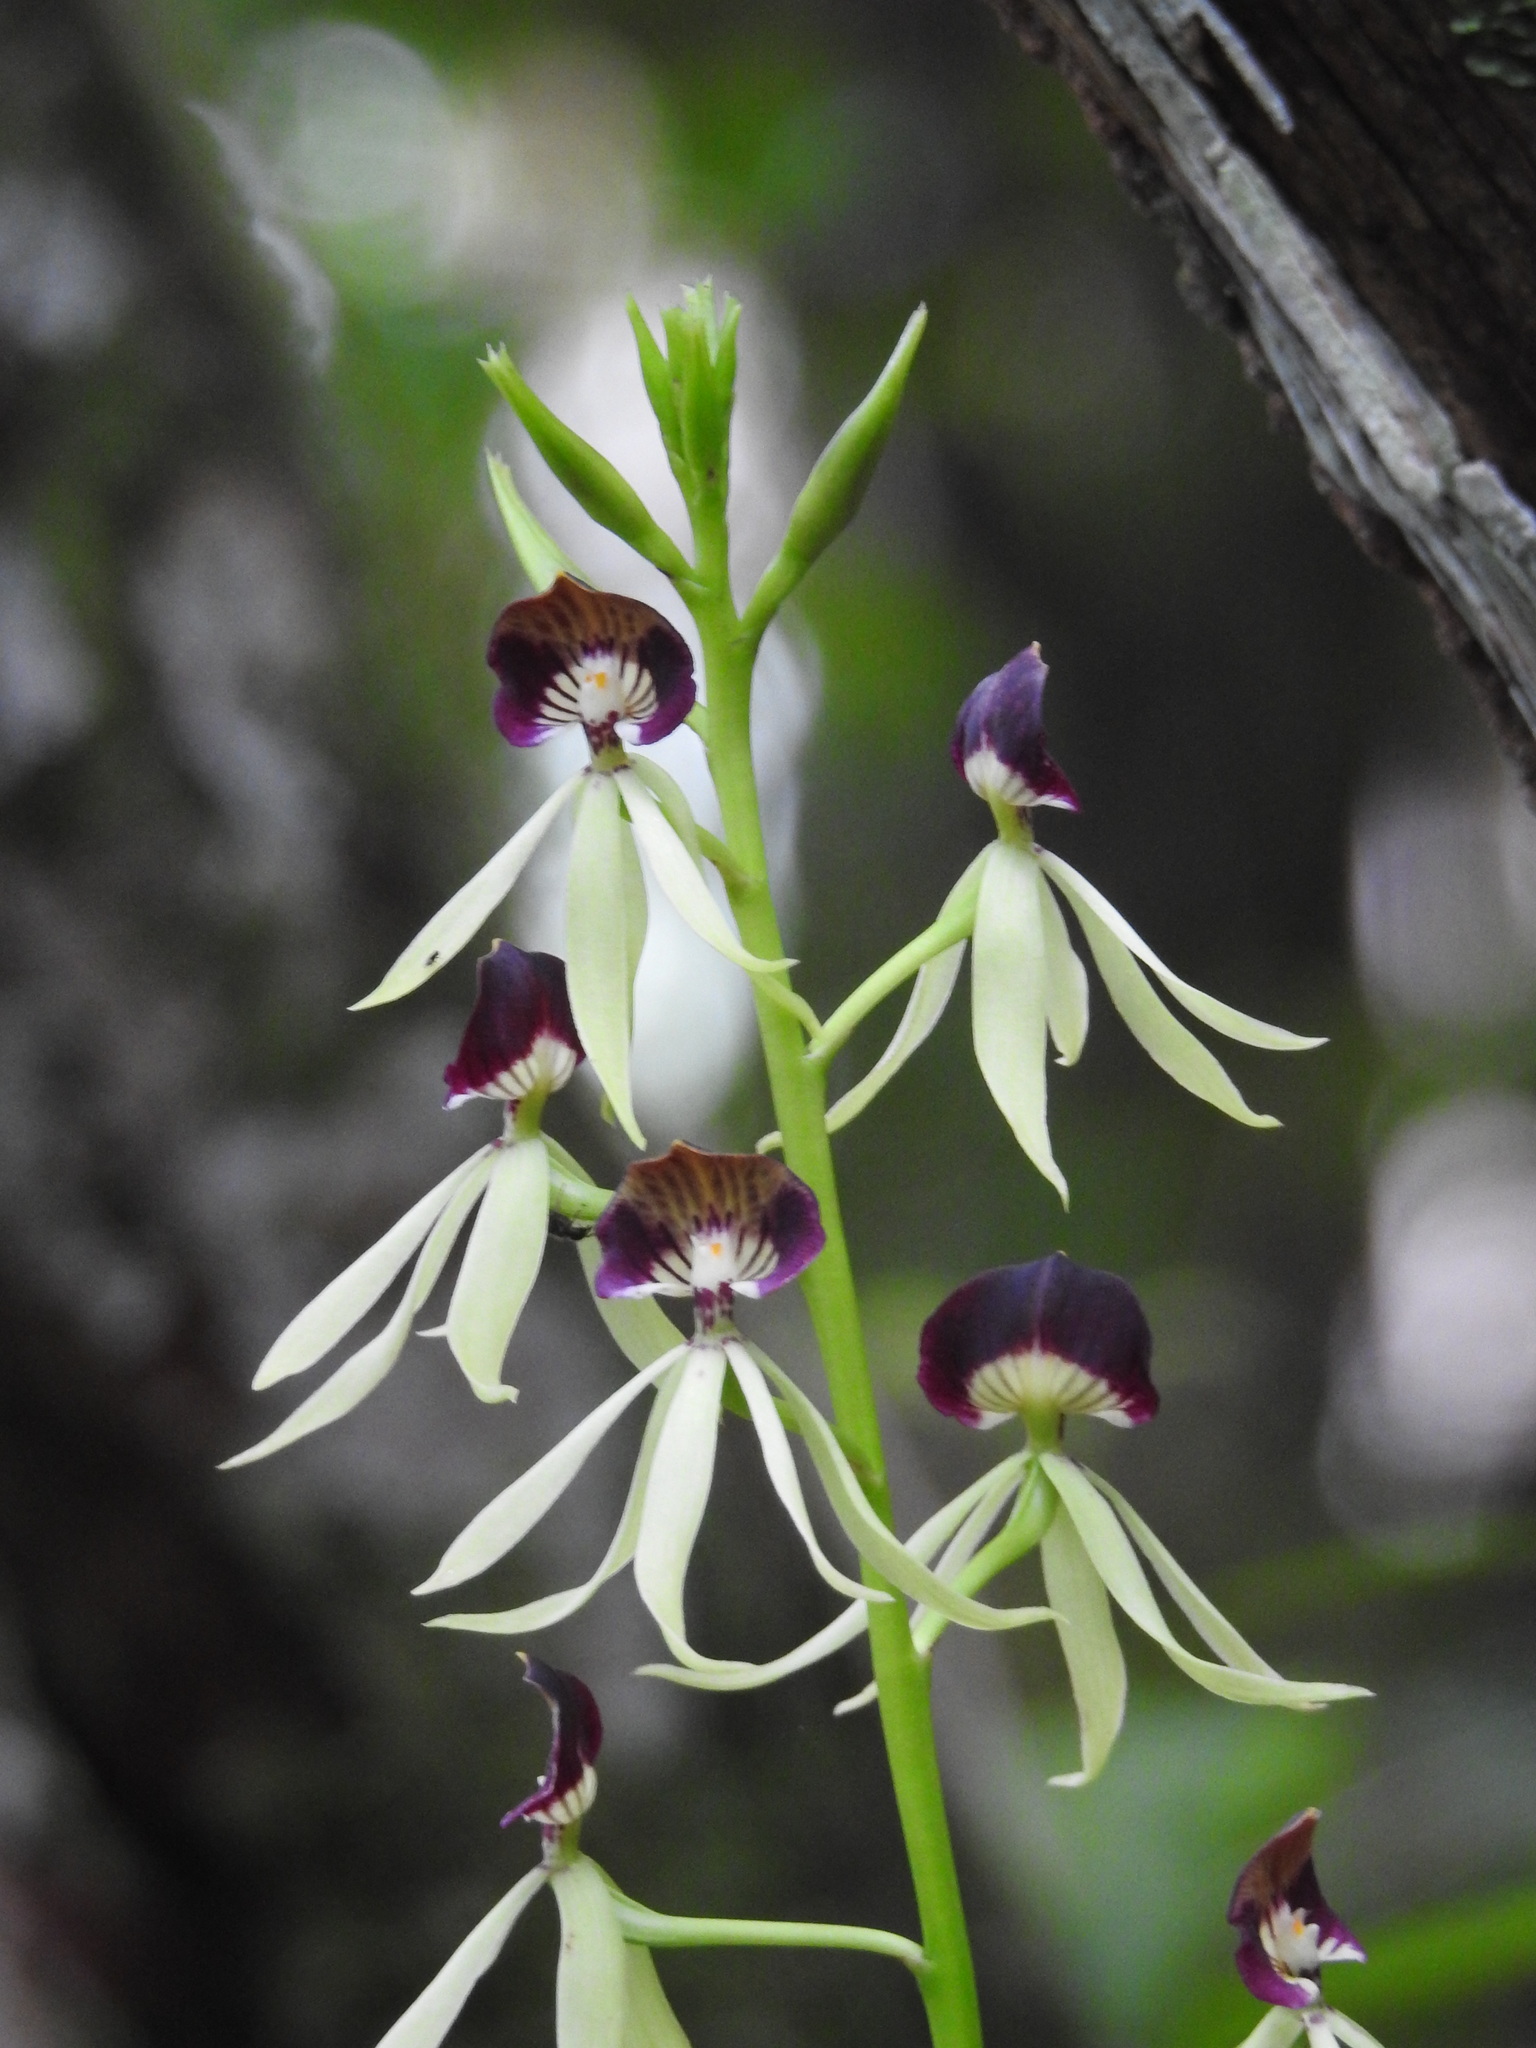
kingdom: Plantae
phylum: Tracheophyta
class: Liliopsida
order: Asparagales
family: Orchidaceae
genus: Prosthechea
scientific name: Prosthechea cochleata
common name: Clamshell orchid
